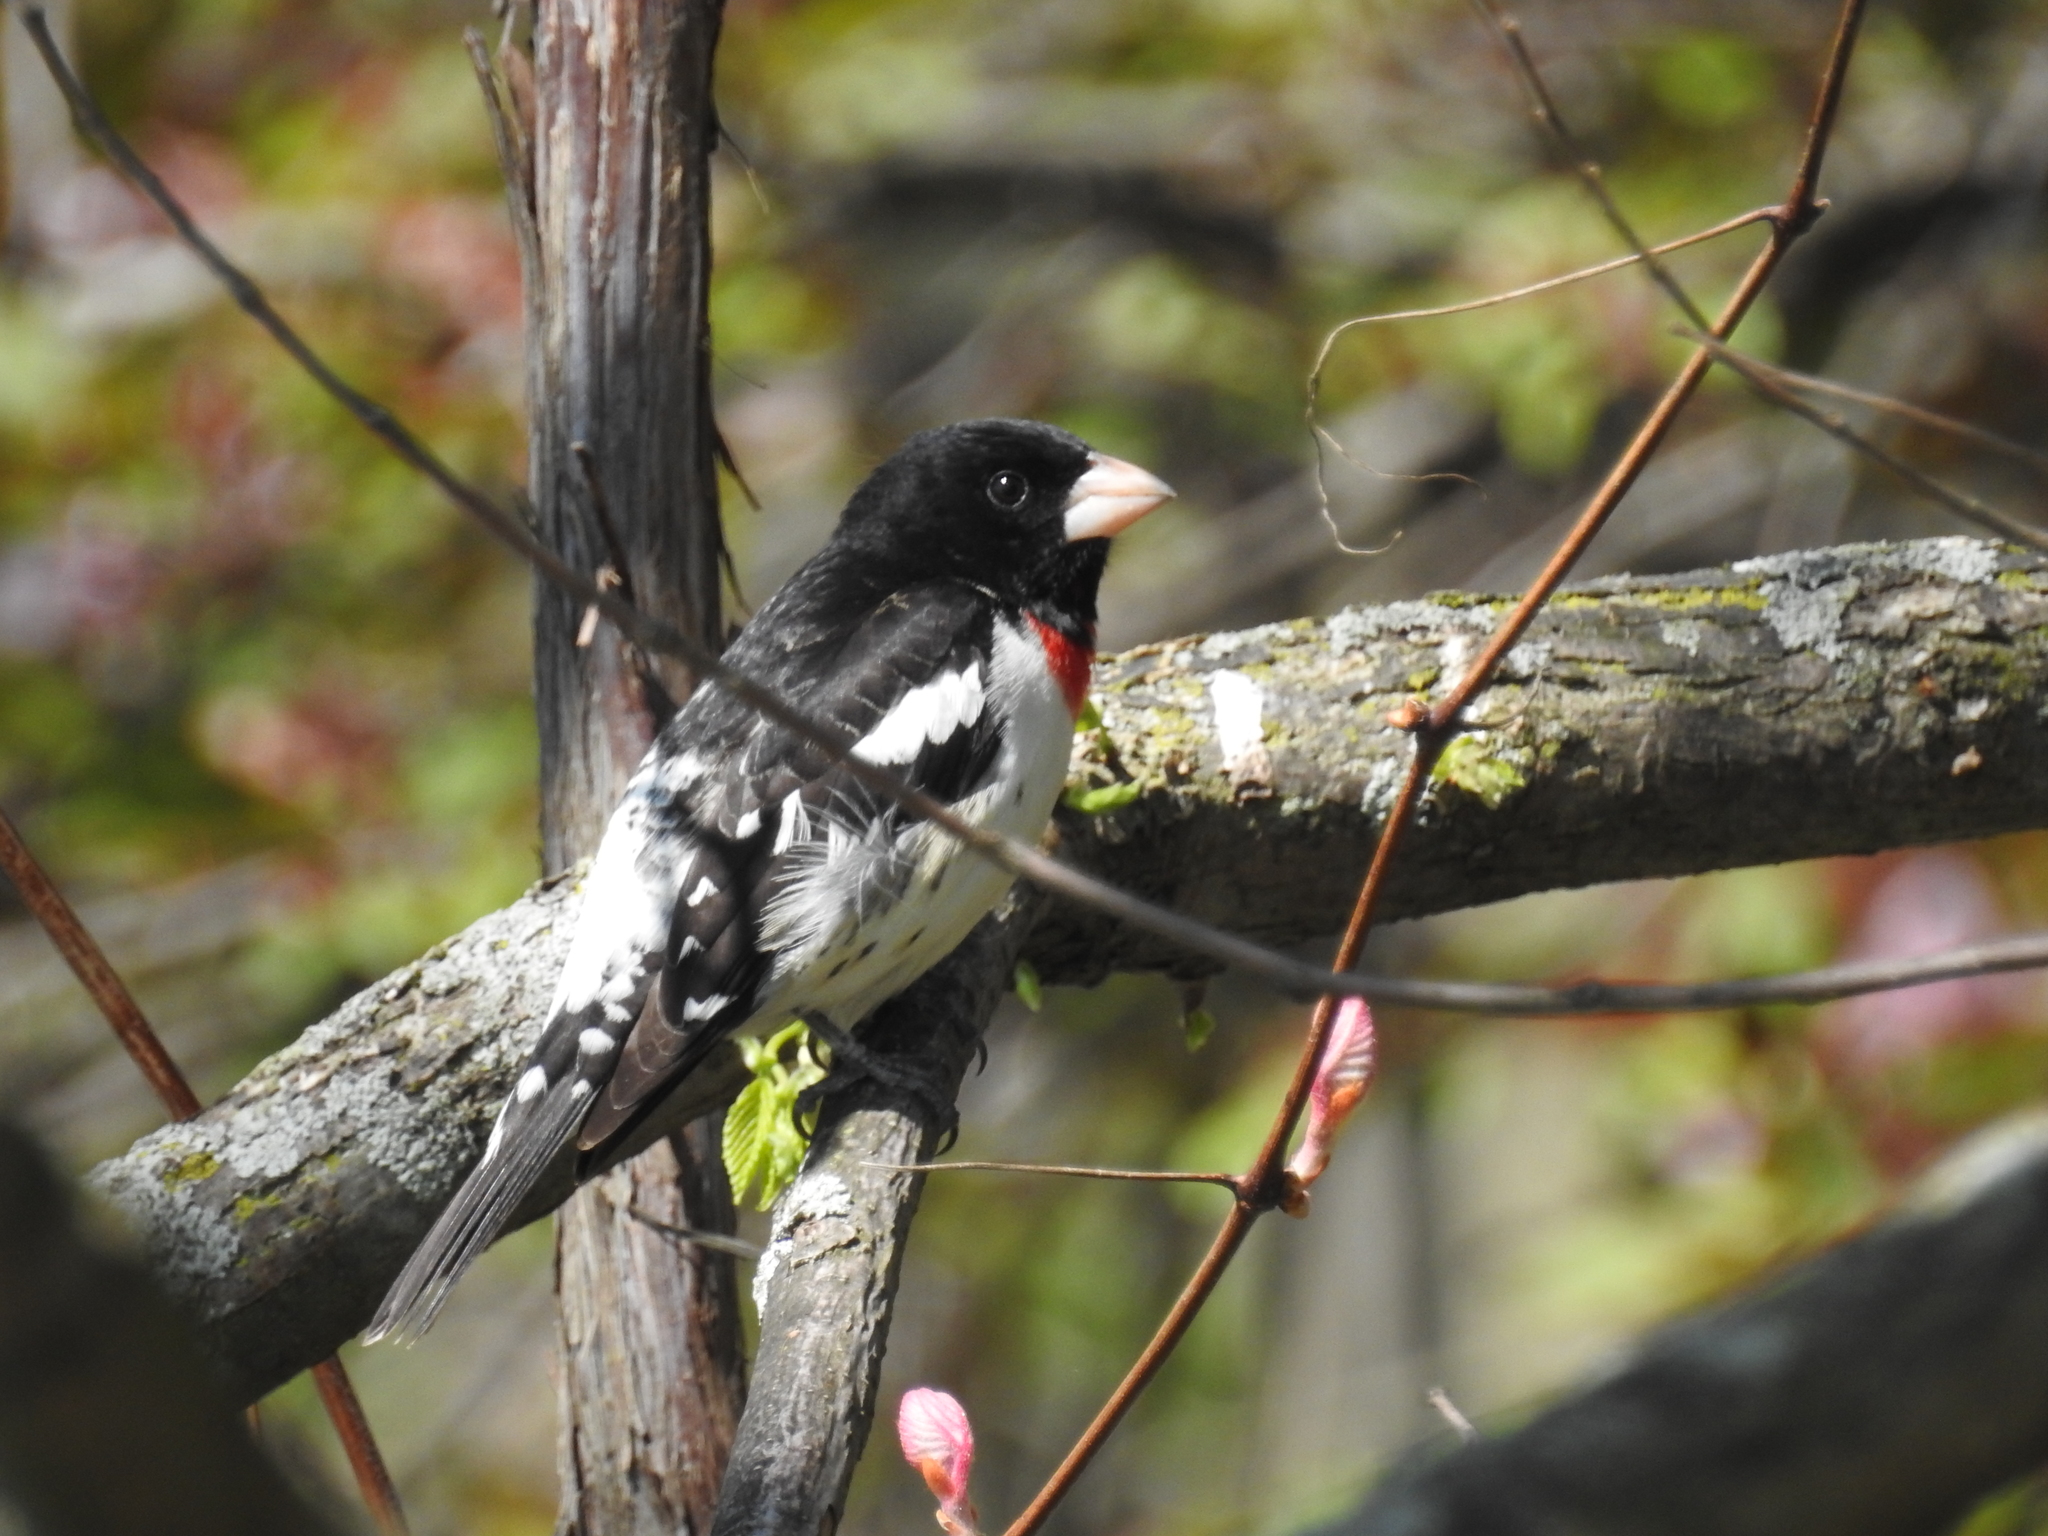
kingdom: Animalia
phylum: Chordata
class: Aves
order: Passeriformes
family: Cardinalidae
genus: Pheucticus
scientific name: Pheucticus ludovicianus
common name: Rose-breasted grosbeak
